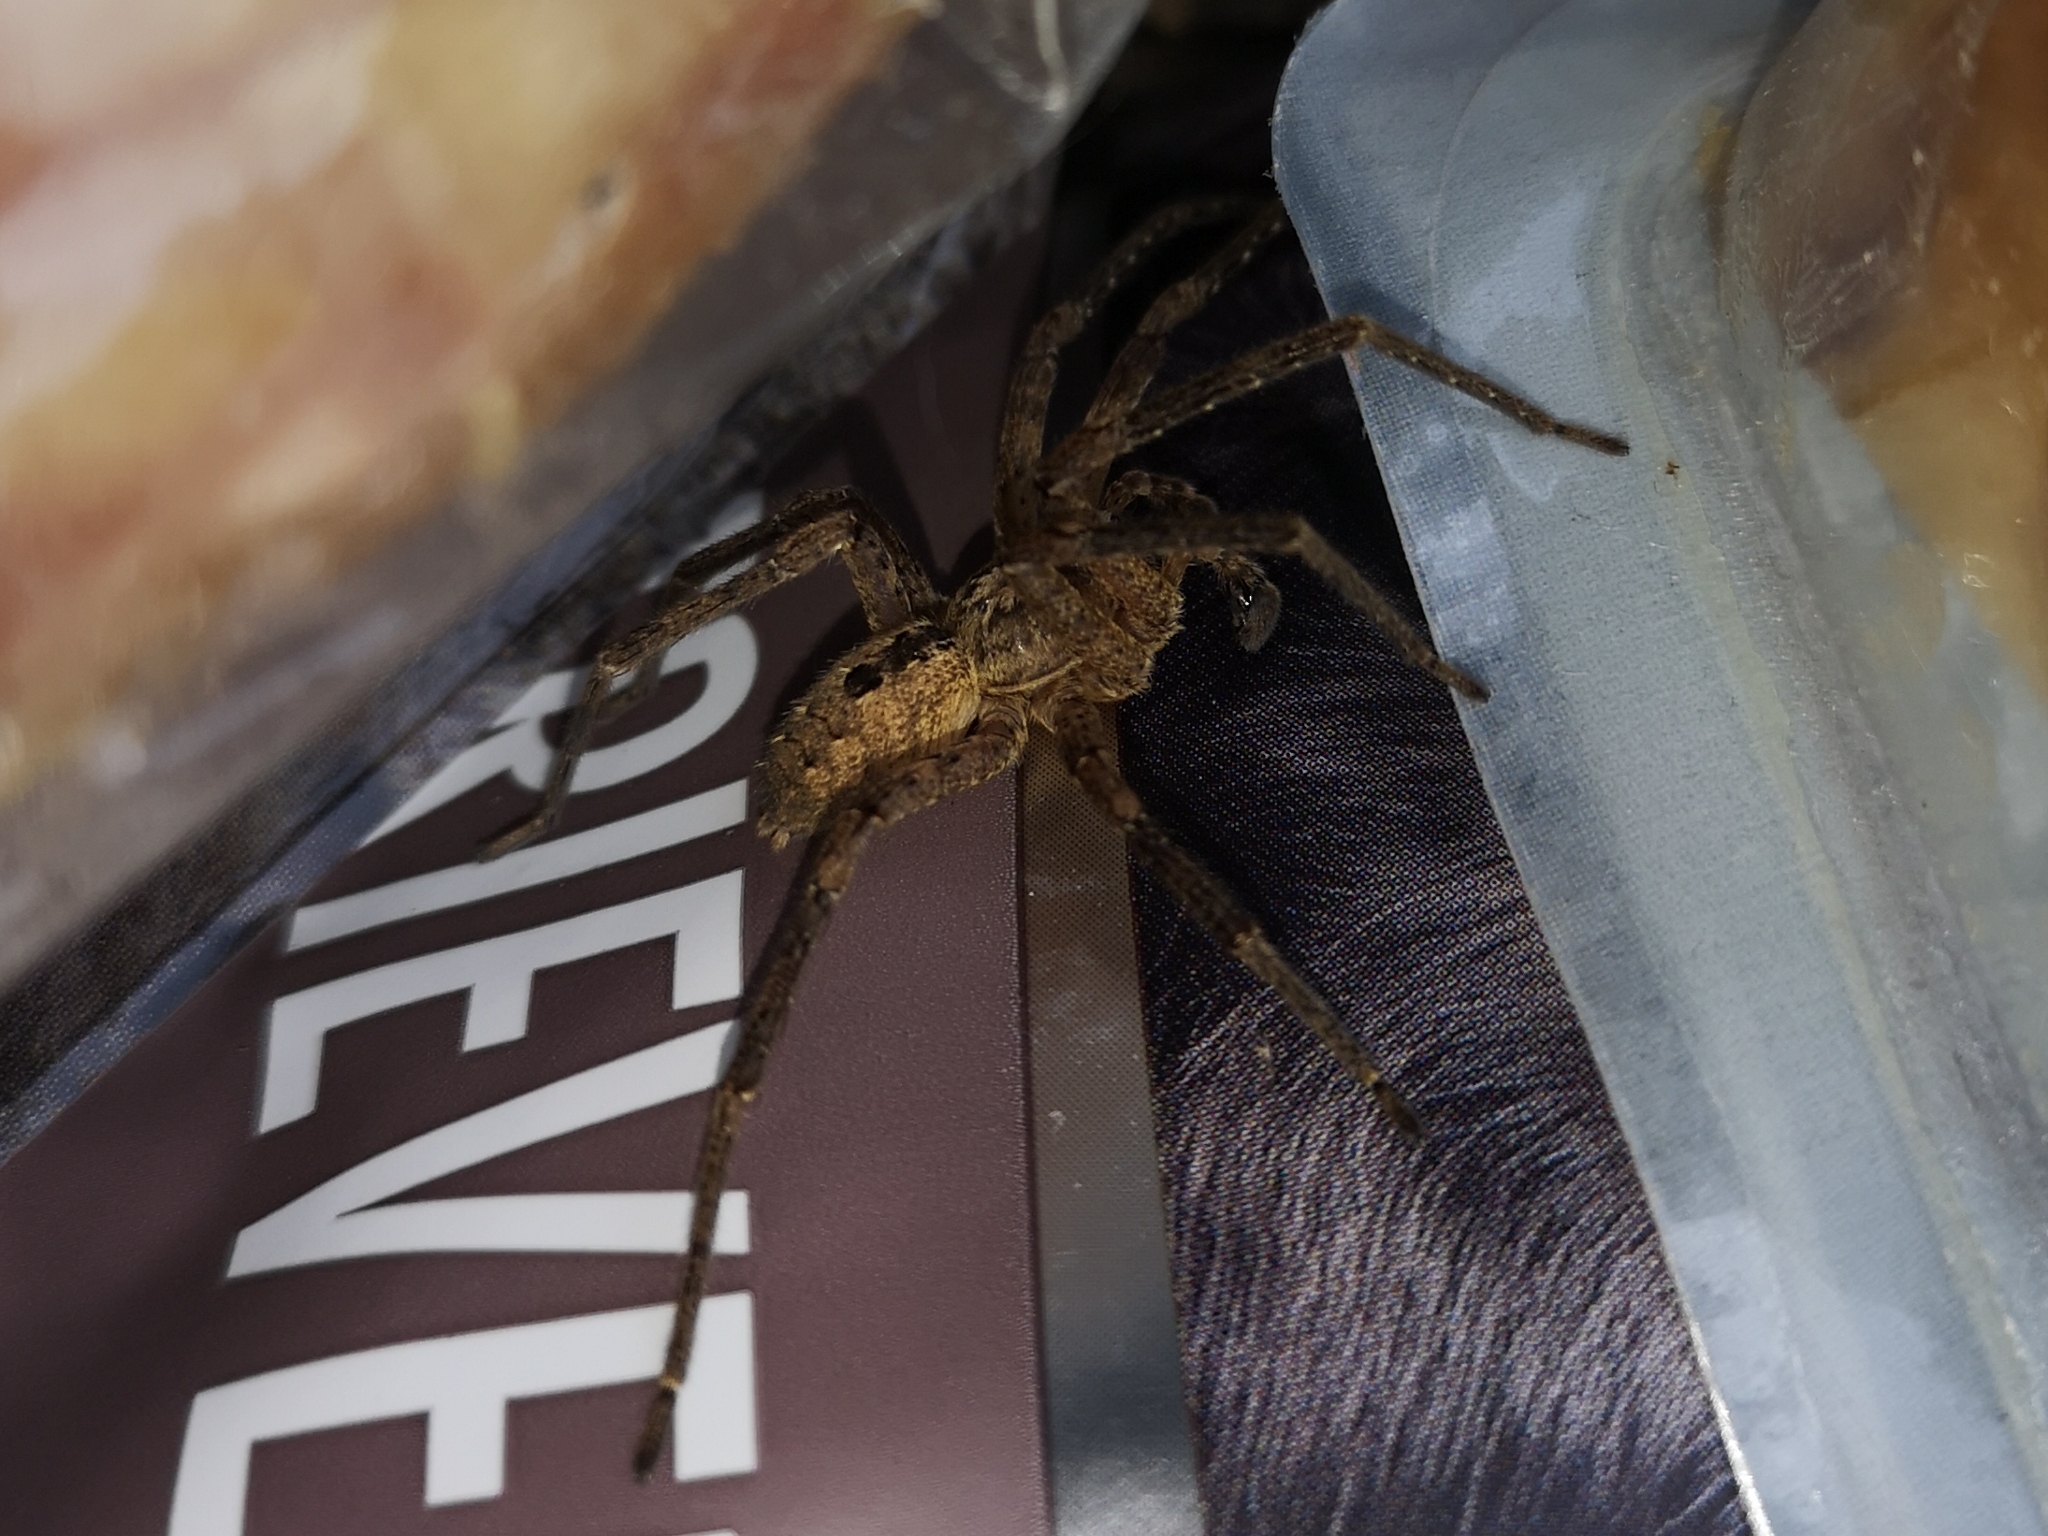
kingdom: Animalia
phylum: Arthropoda
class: Arachnida
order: Araneae
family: Zoropsidae
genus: Zoropsis
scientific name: Zoropsis spinimana
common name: Zoropsid spider
